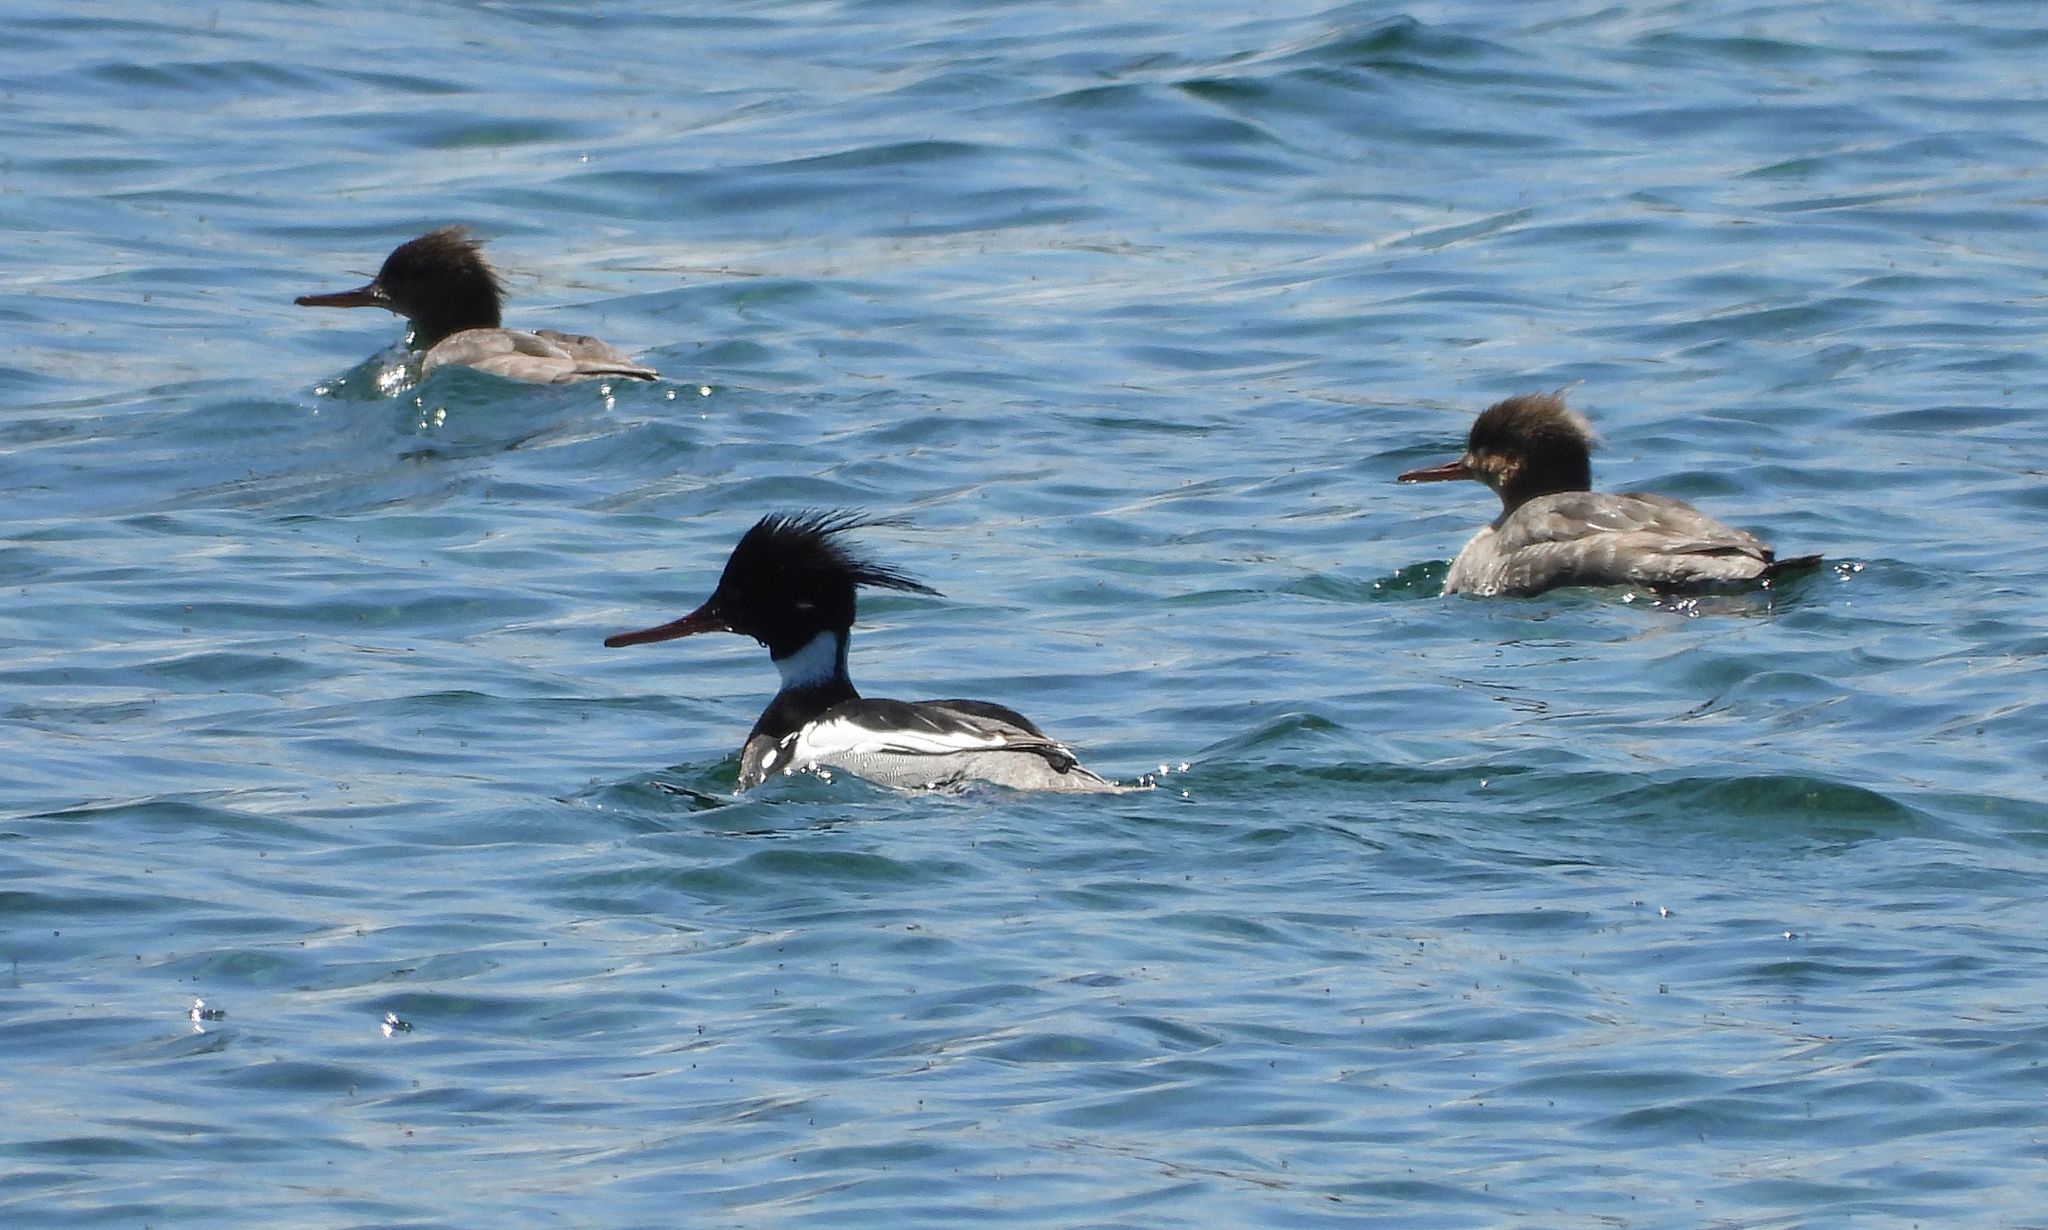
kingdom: Animalia
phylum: Chordata
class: Aves
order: Anseriformes
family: Anatidae
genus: Mergus
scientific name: Mergus serrator
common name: Red-breasted merganser
